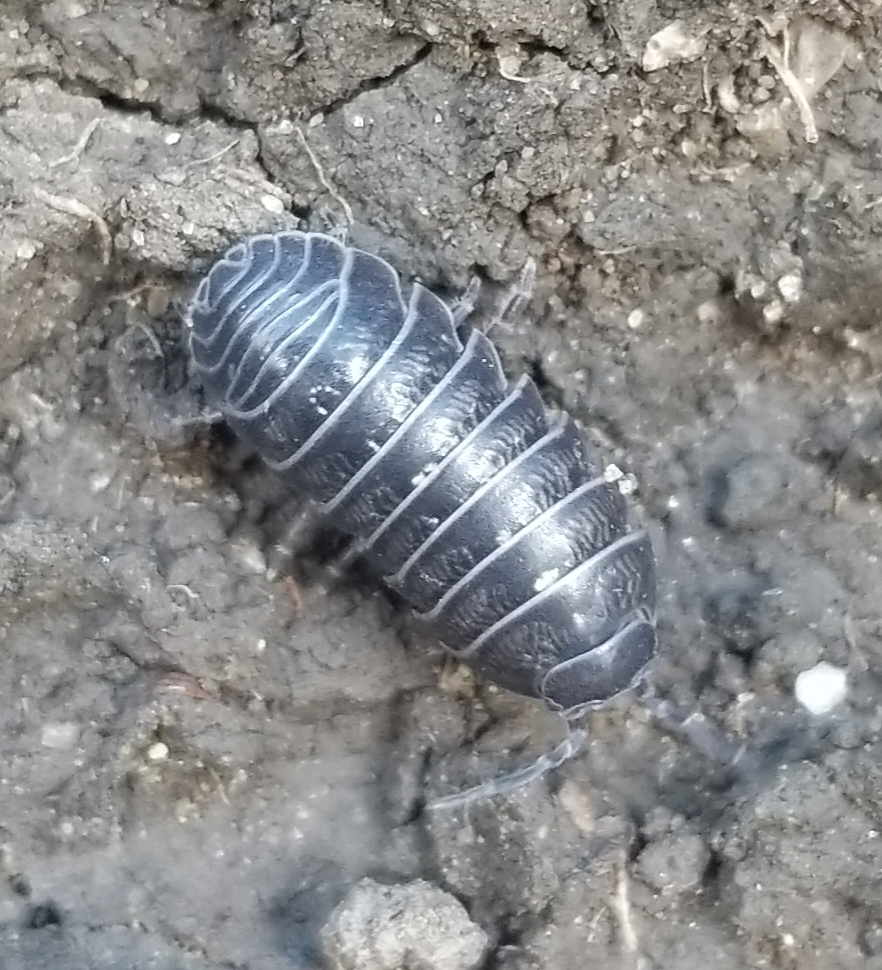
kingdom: Animalia
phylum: Arthropoda
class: Malacostraca
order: Isopoda
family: Armadillidiidae
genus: Armadillidium
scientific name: Armadillidium vulgare
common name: Common pill woodlouse
